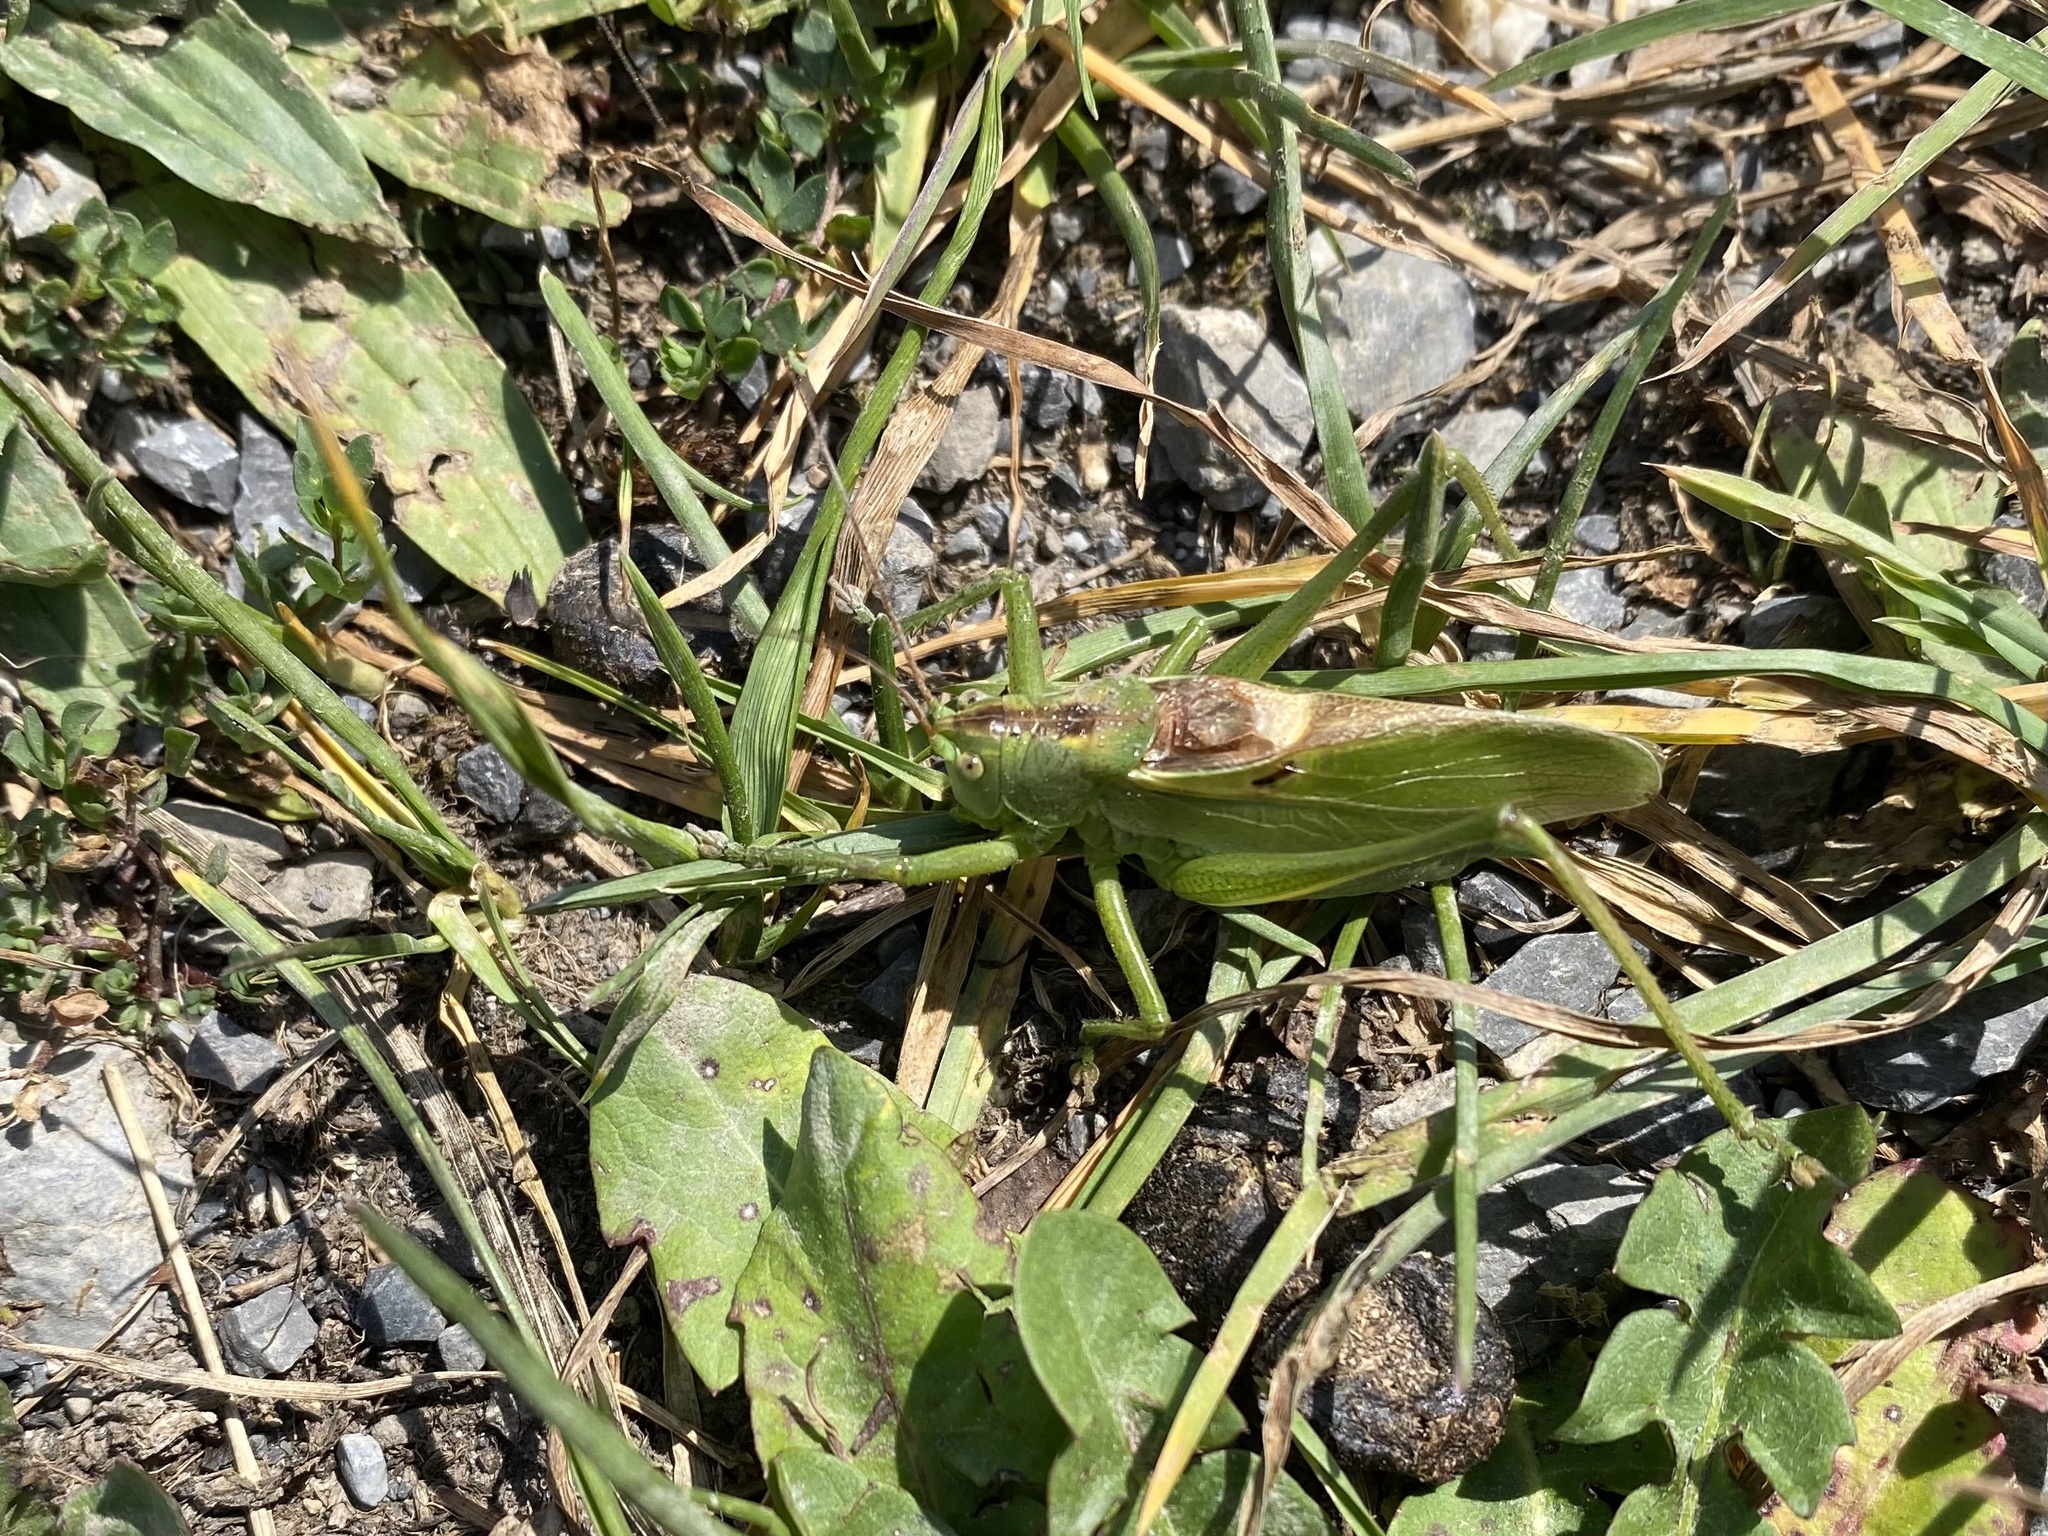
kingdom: Animalia
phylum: Arthropoda
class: Insecta
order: Orthoptera
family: Tettigoniidae
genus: Tettigonia
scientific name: Tettigonia cantans
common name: Upland green bush-cricket
